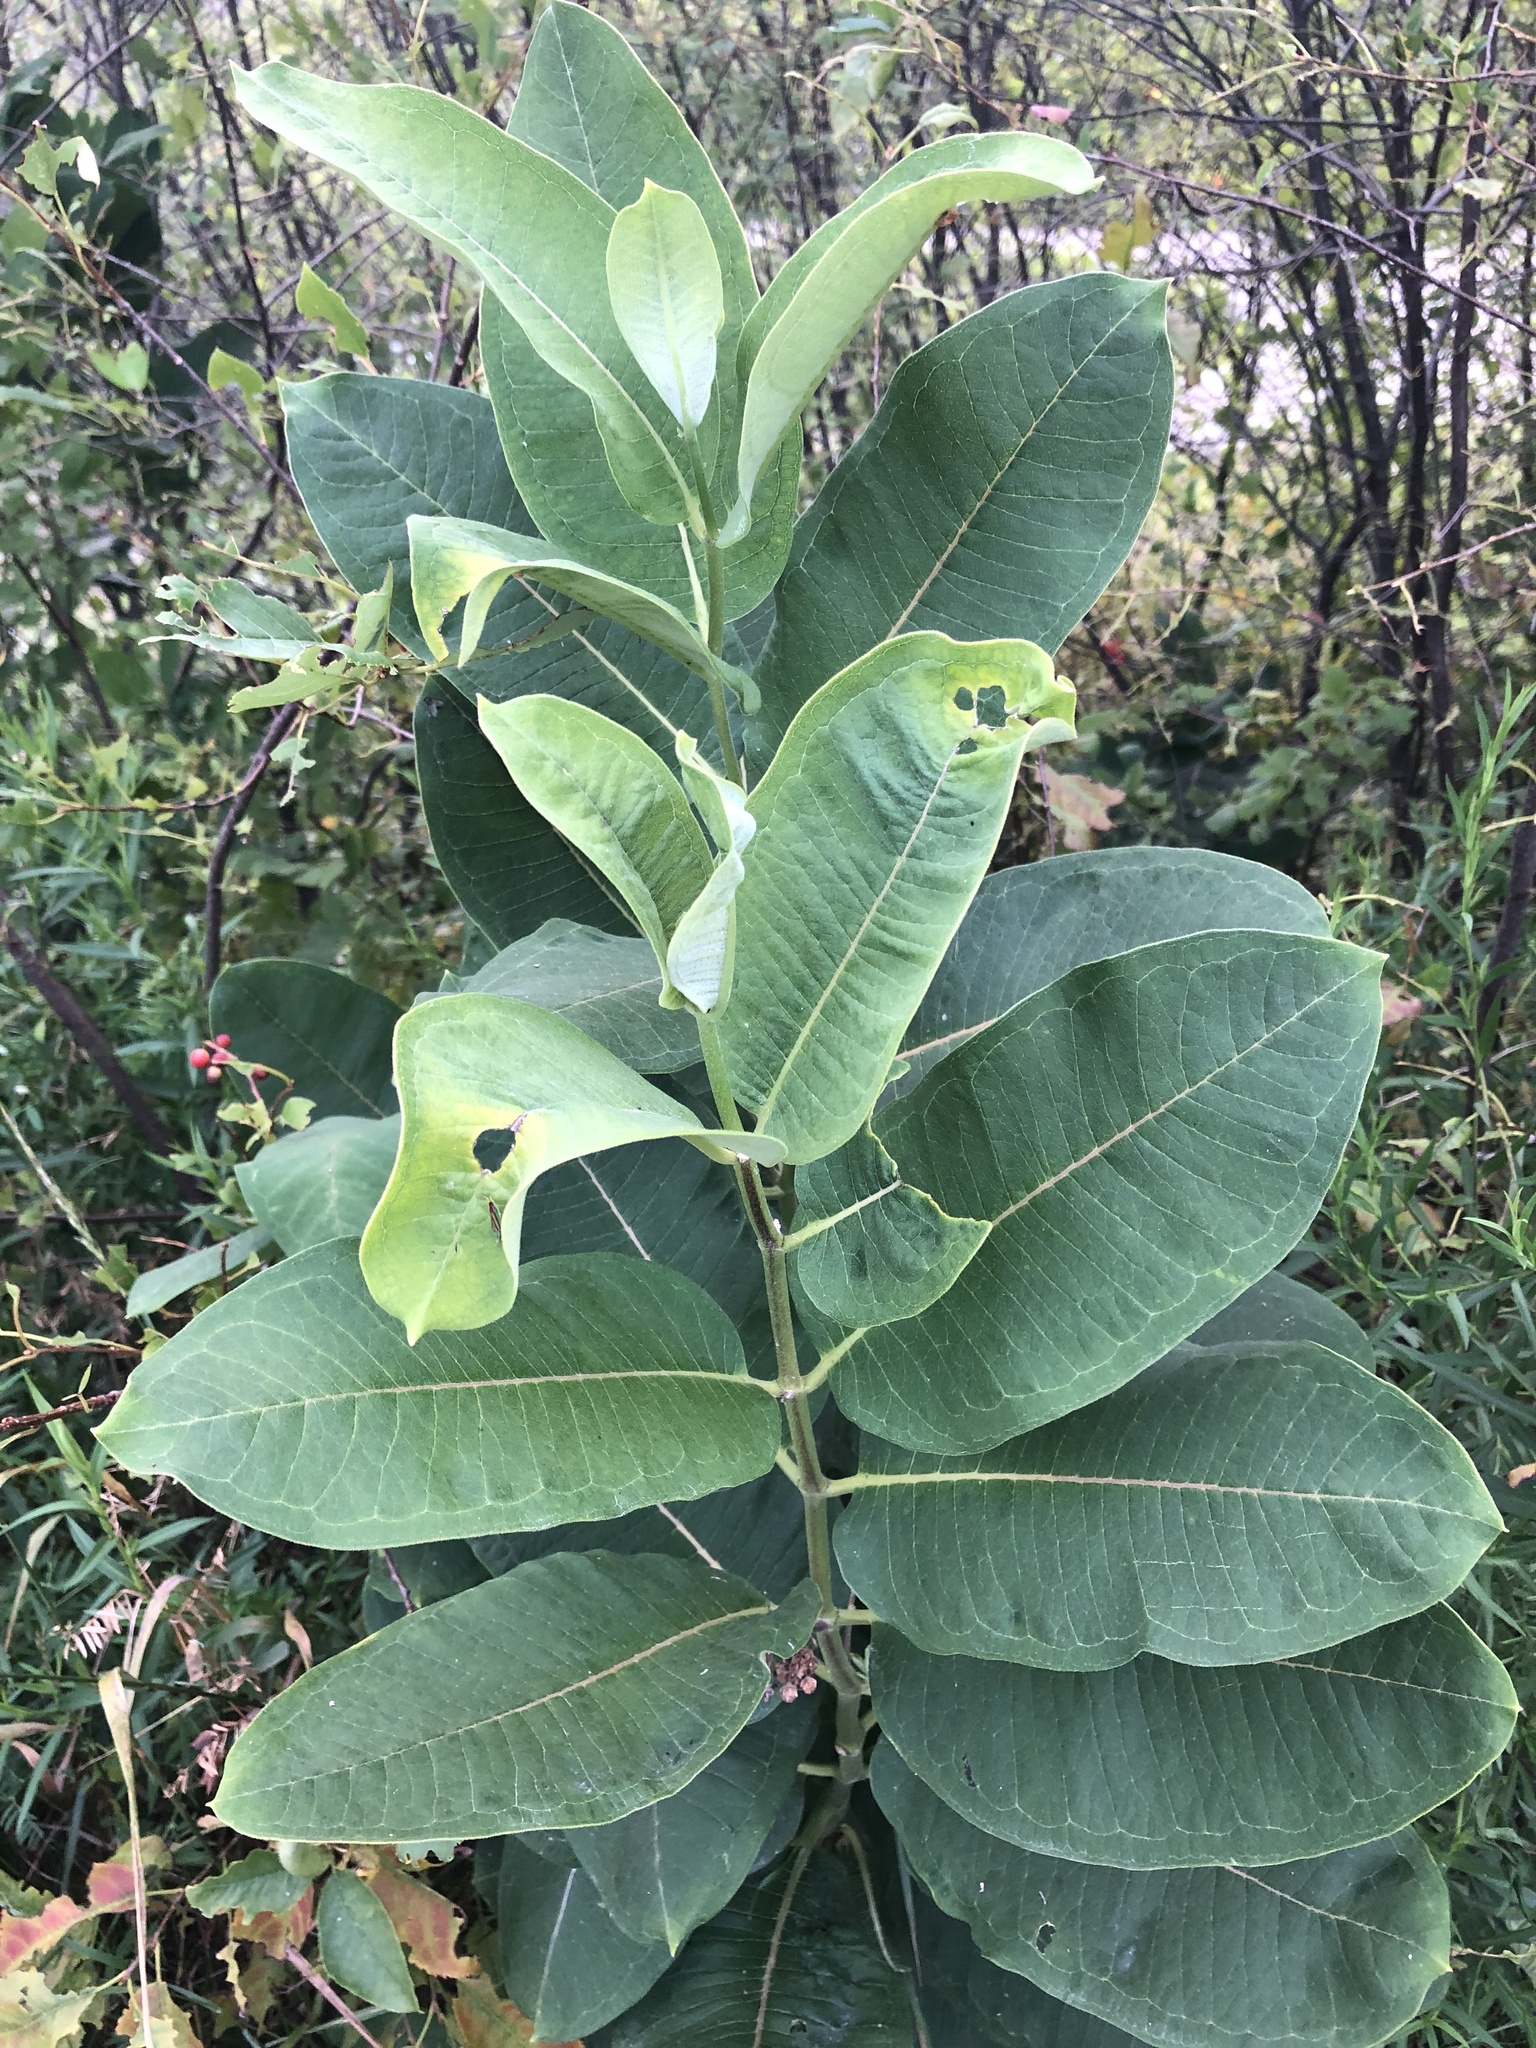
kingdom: Plantae
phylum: Tracheophyta
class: Magnoliopsida
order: Gentianales
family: Apocynaceae
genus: Asclepias
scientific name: Asclepias syriaca
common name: Common milkweed
